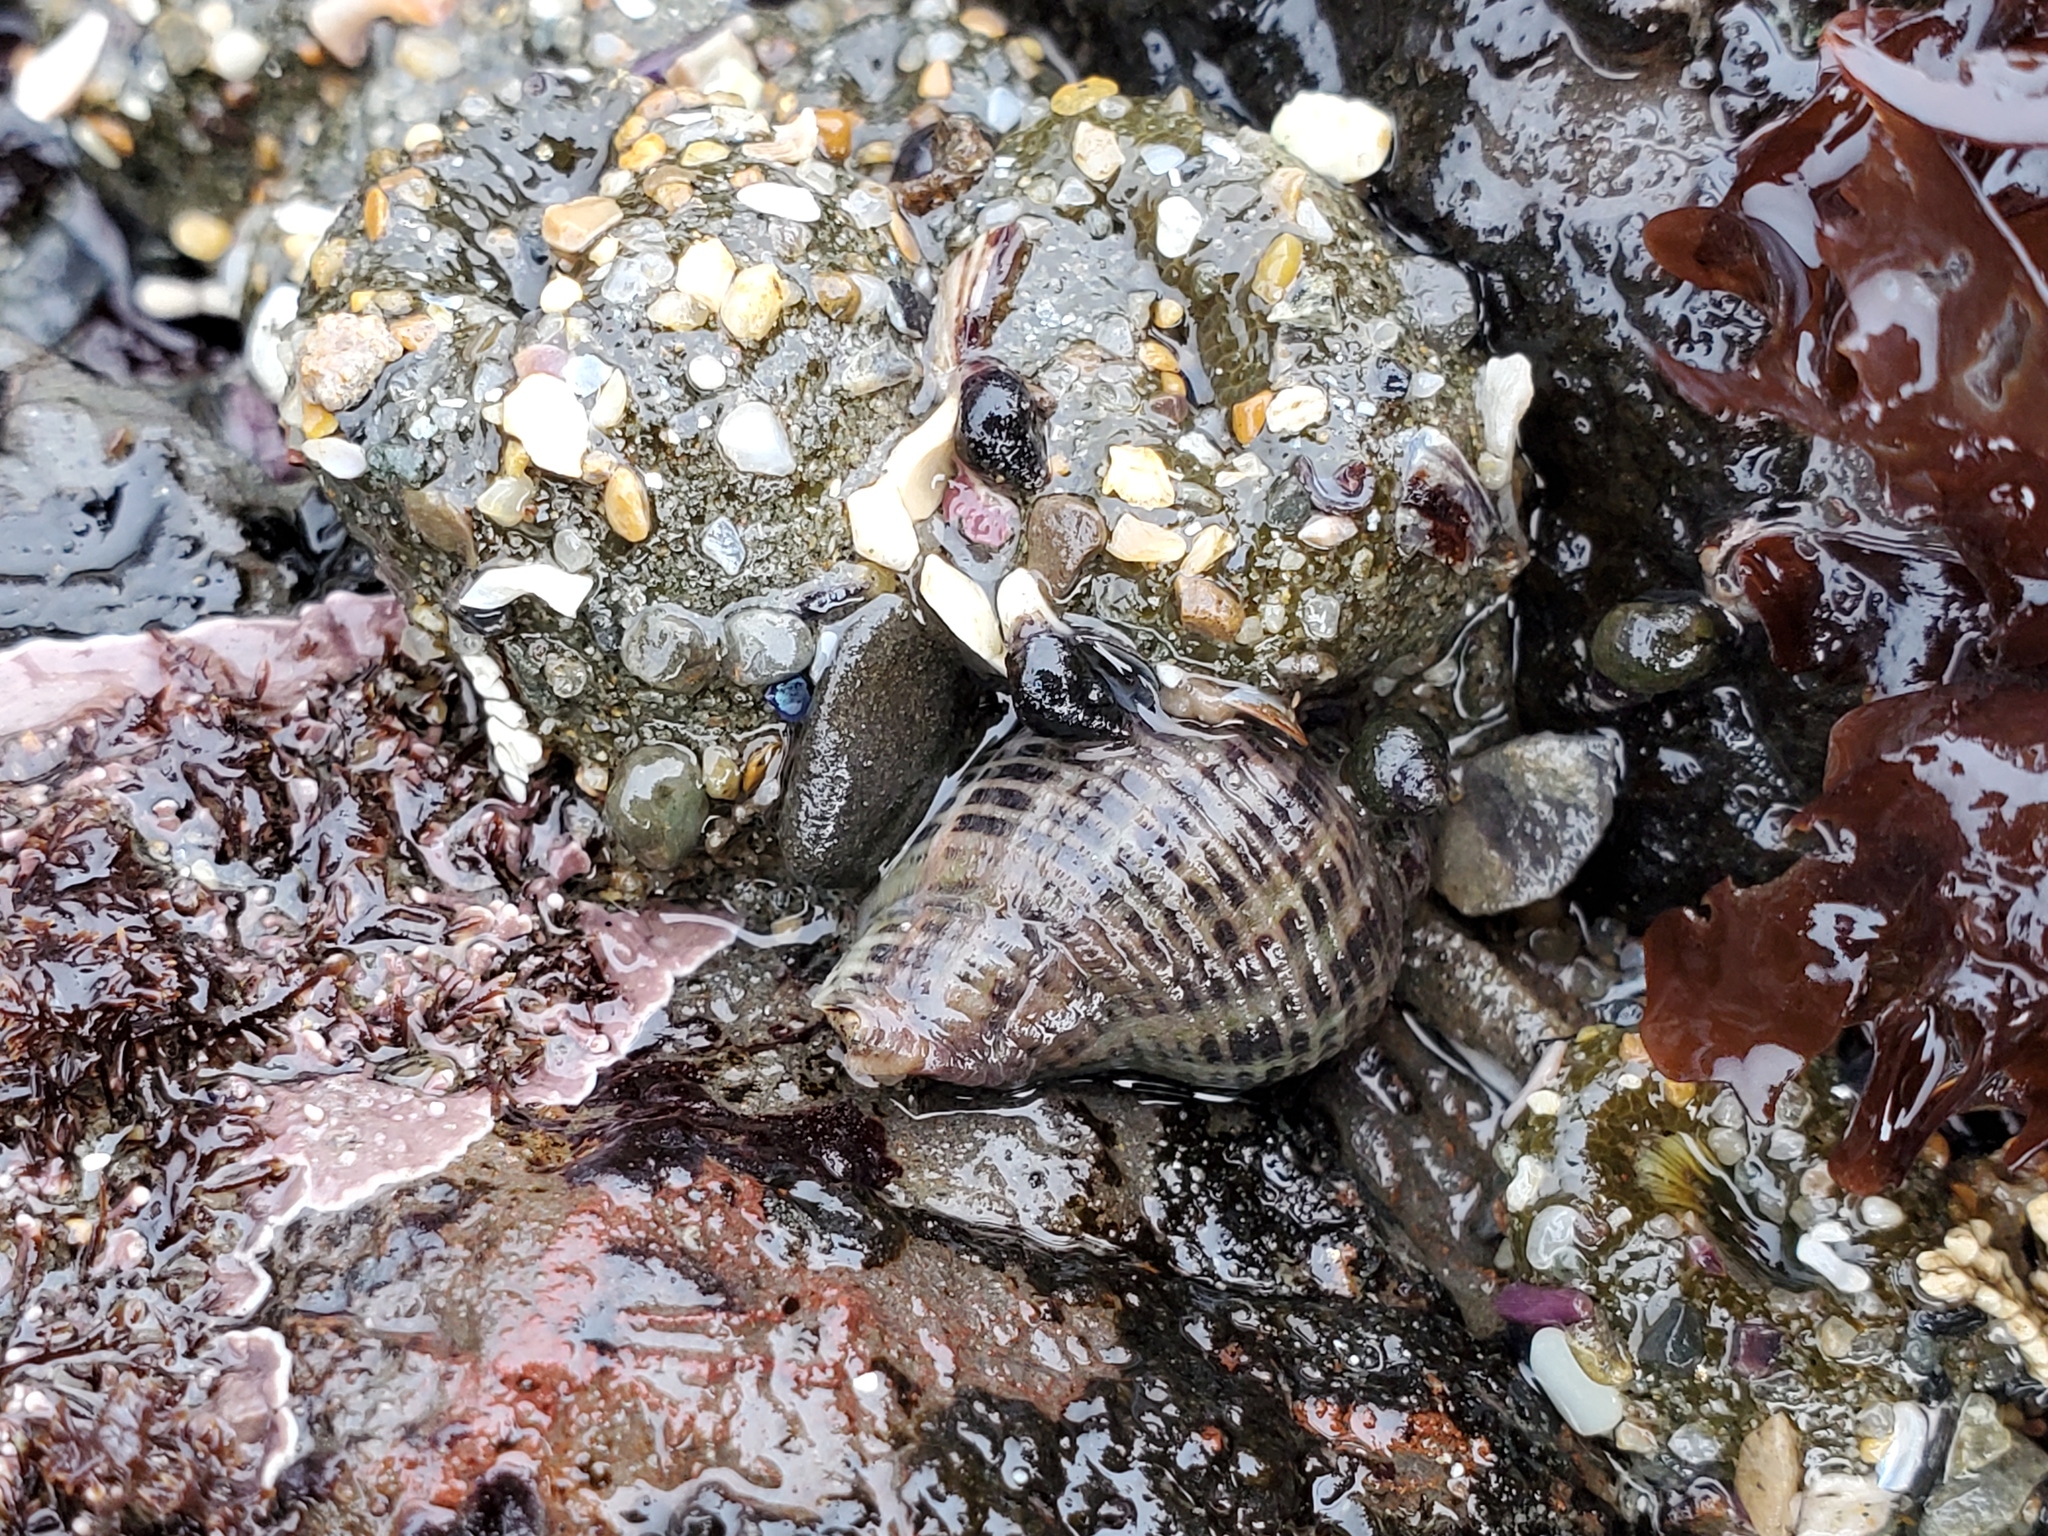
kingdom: Animalia
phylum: Mollusca
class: Gastropoda
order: Neogastropoda
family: Muricidae
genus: Acanthinucella
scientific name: Acanthinucella spirata
